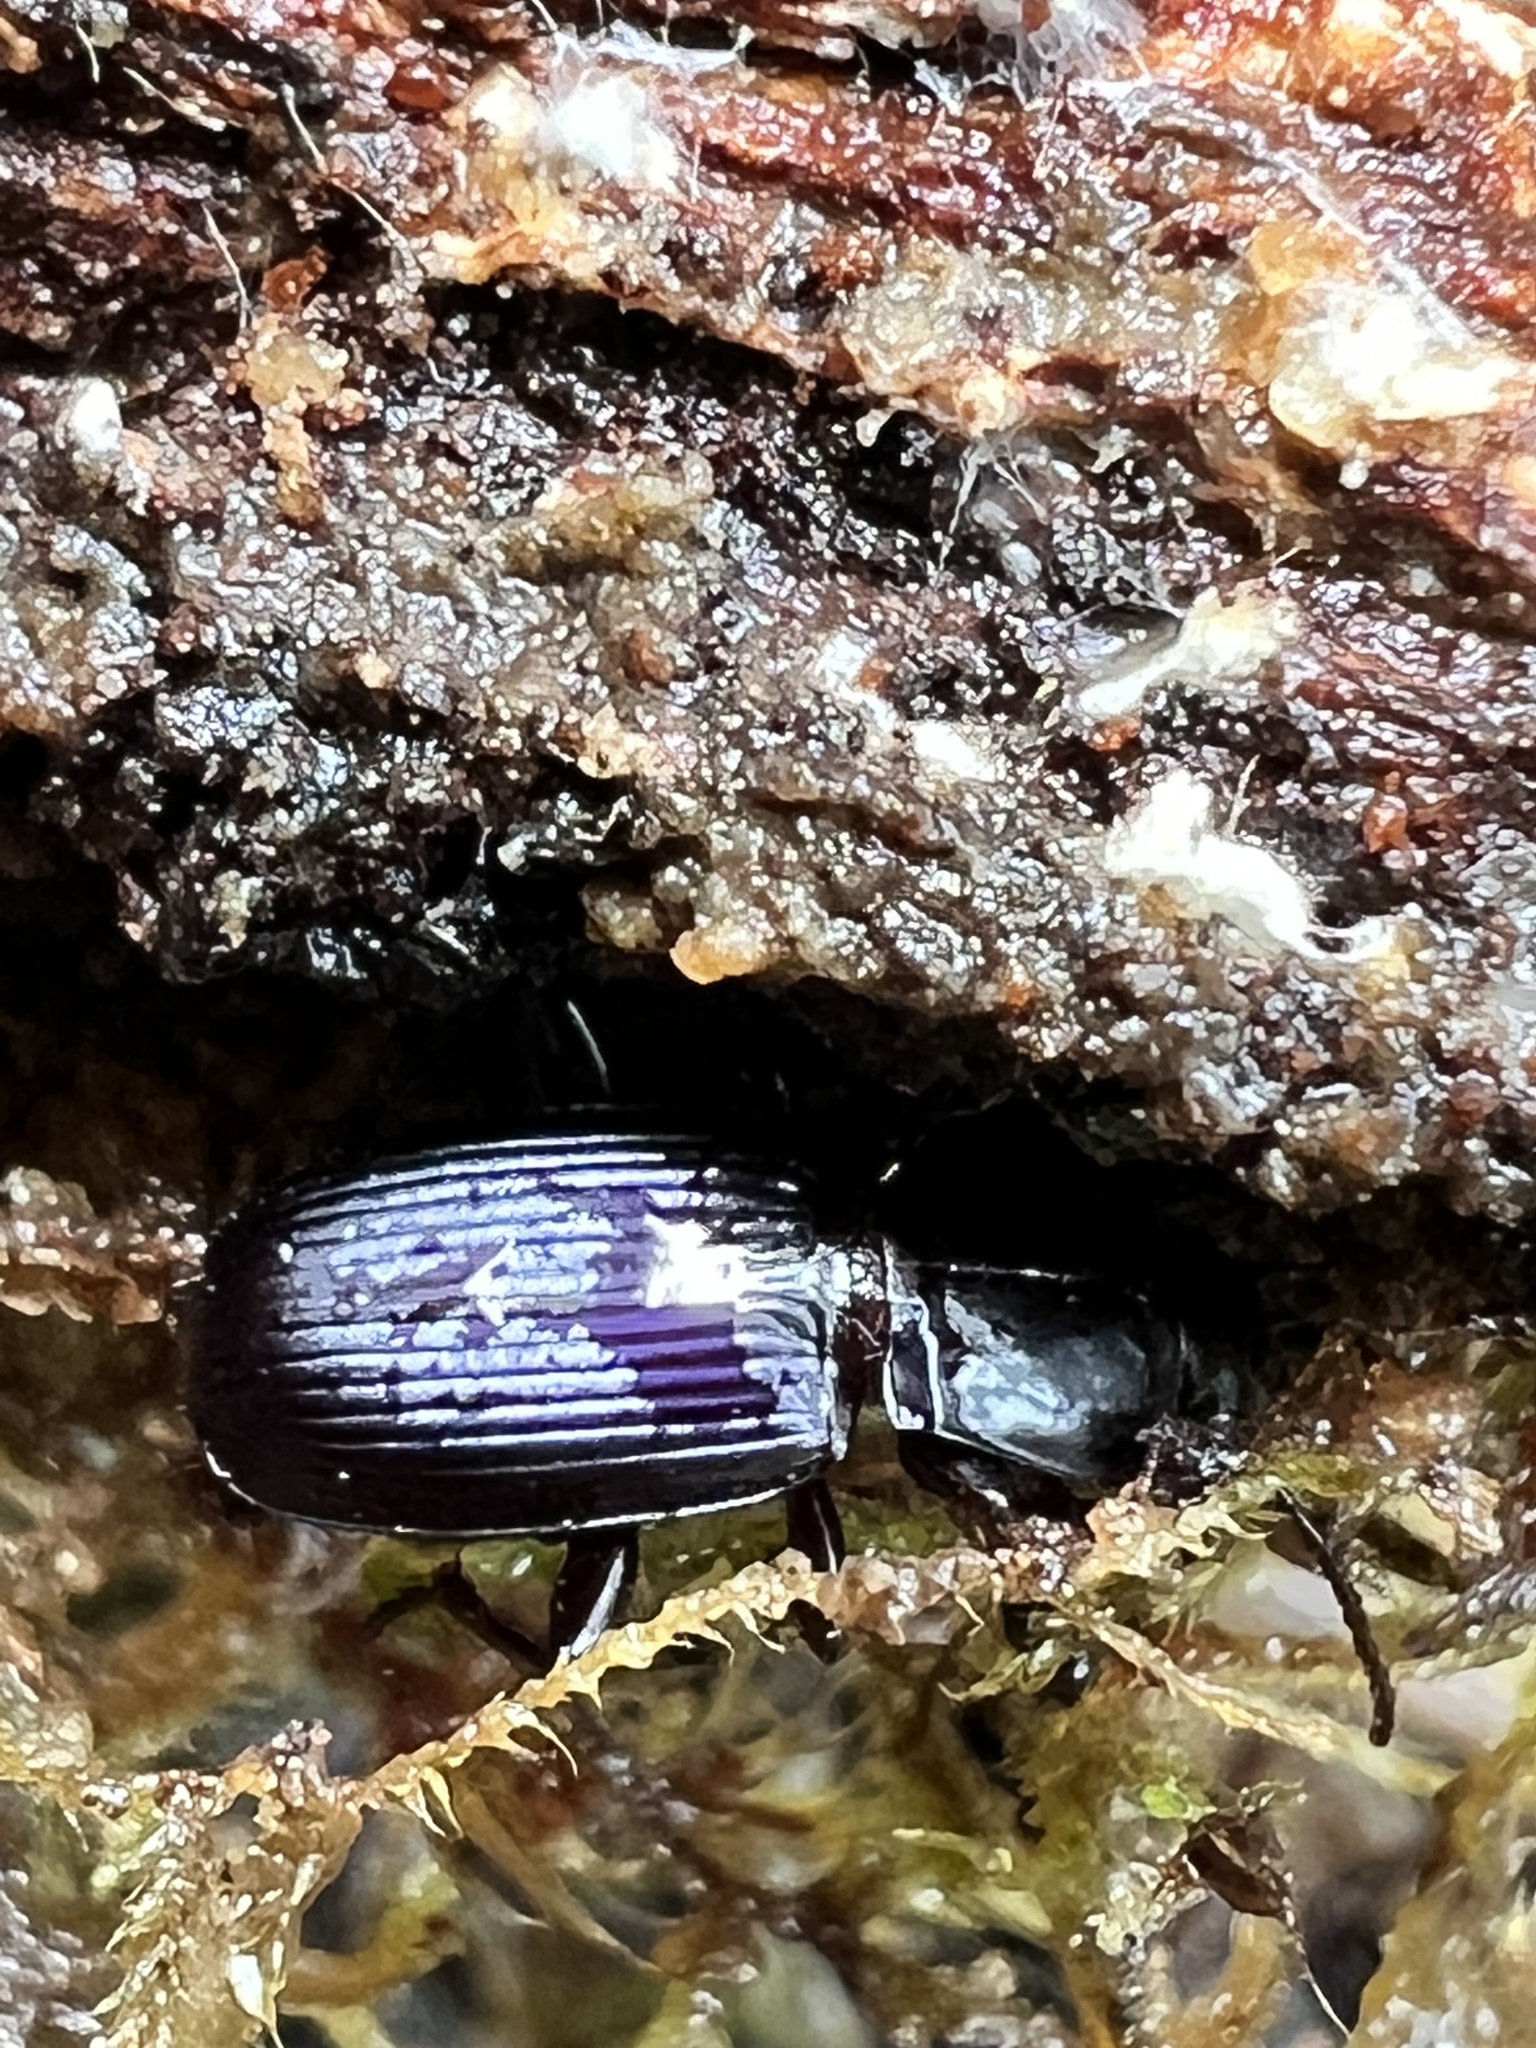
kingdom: Animalia
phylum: Arthropoda
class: Insecta
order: Coleoptera
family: Carabidae
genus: Pterostichus
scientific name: Pterostichus amethystinus
